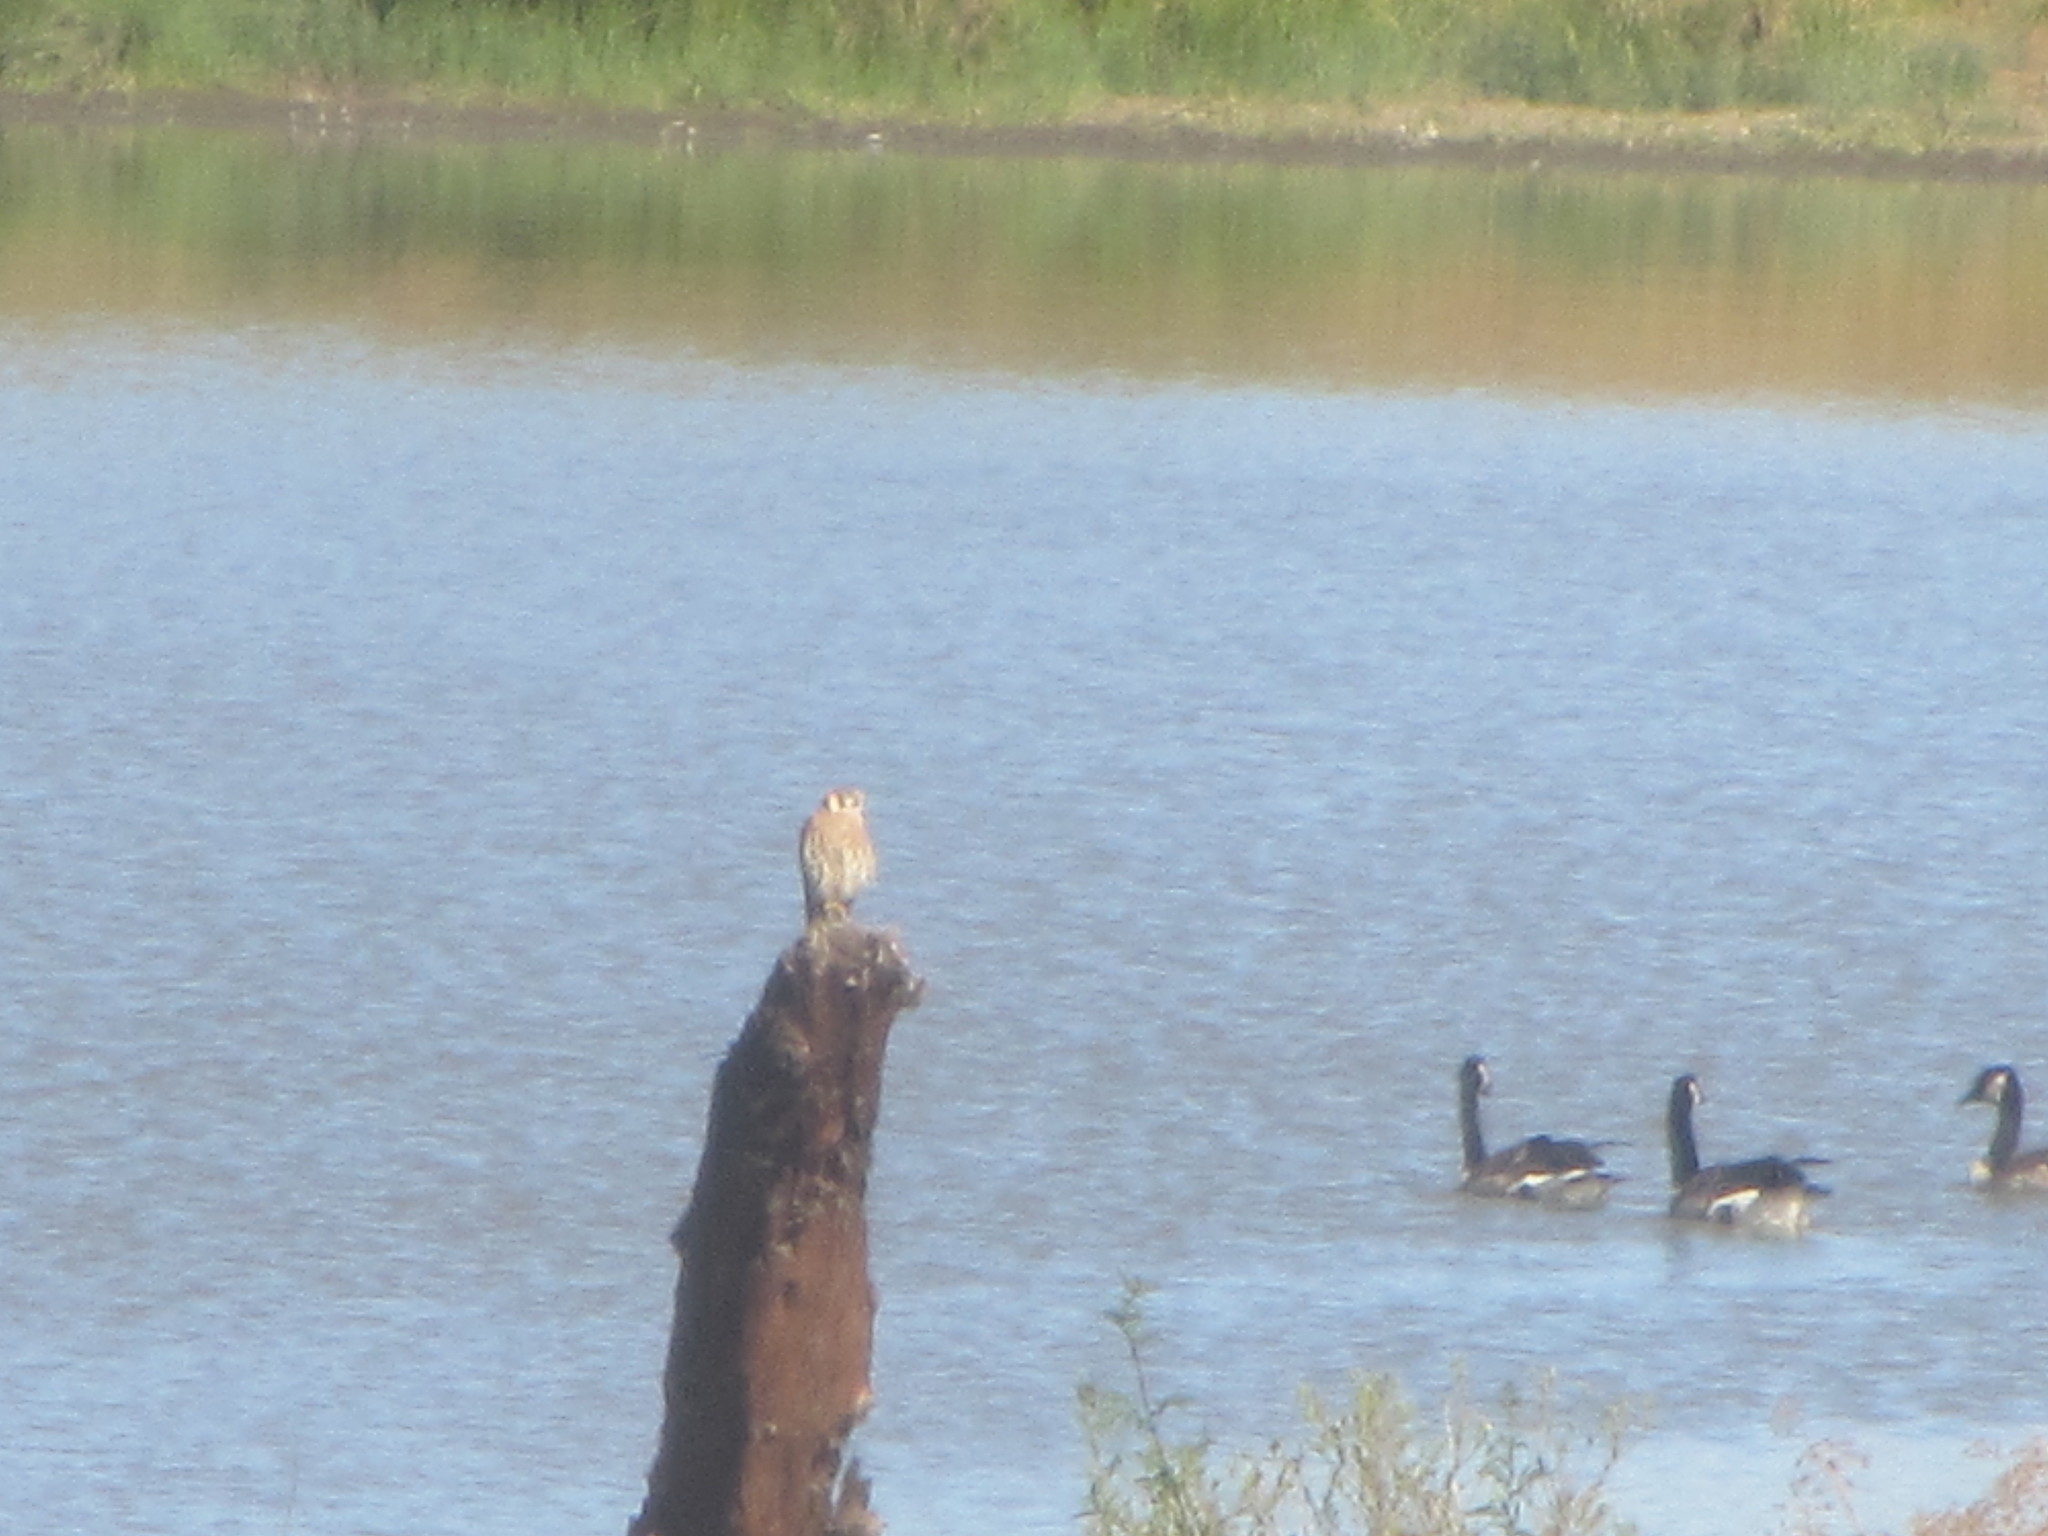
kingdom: Animalia
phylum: Chordata
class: Aves
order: Falconiformes
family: Falconidae
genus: Falco
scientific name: Falco sparverius
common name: American kestrel
